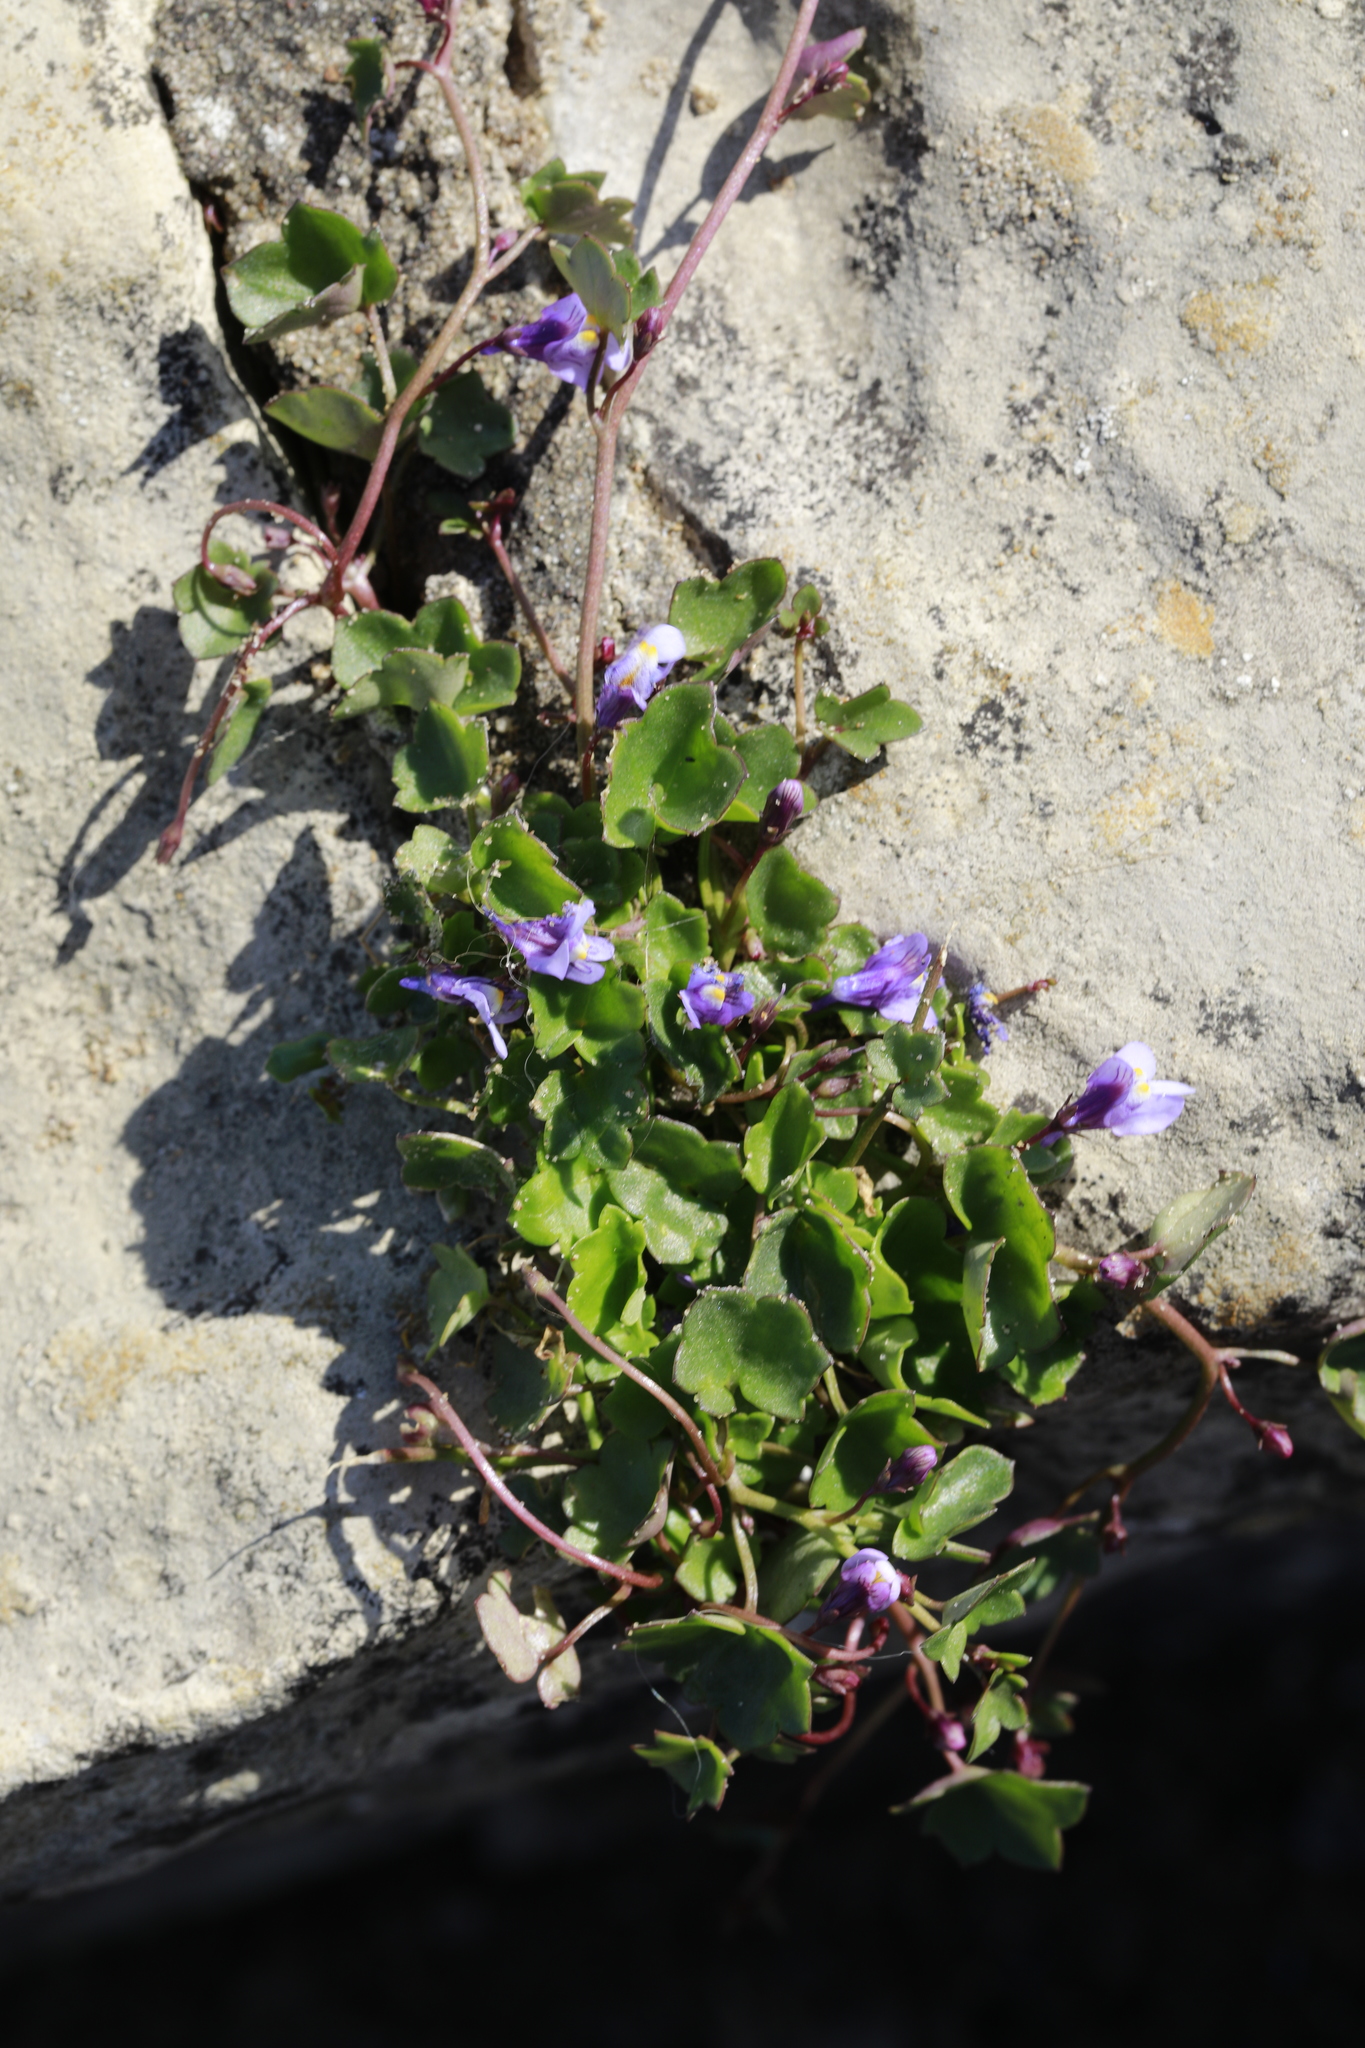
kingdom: Plantae
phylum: Tracheophyta
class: Magnoliopsida
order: Lamiales
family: Plantaginaceae
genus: Cymbalaria
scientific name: Cymbalaria muralis
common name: Ivy-leaved toadflax
